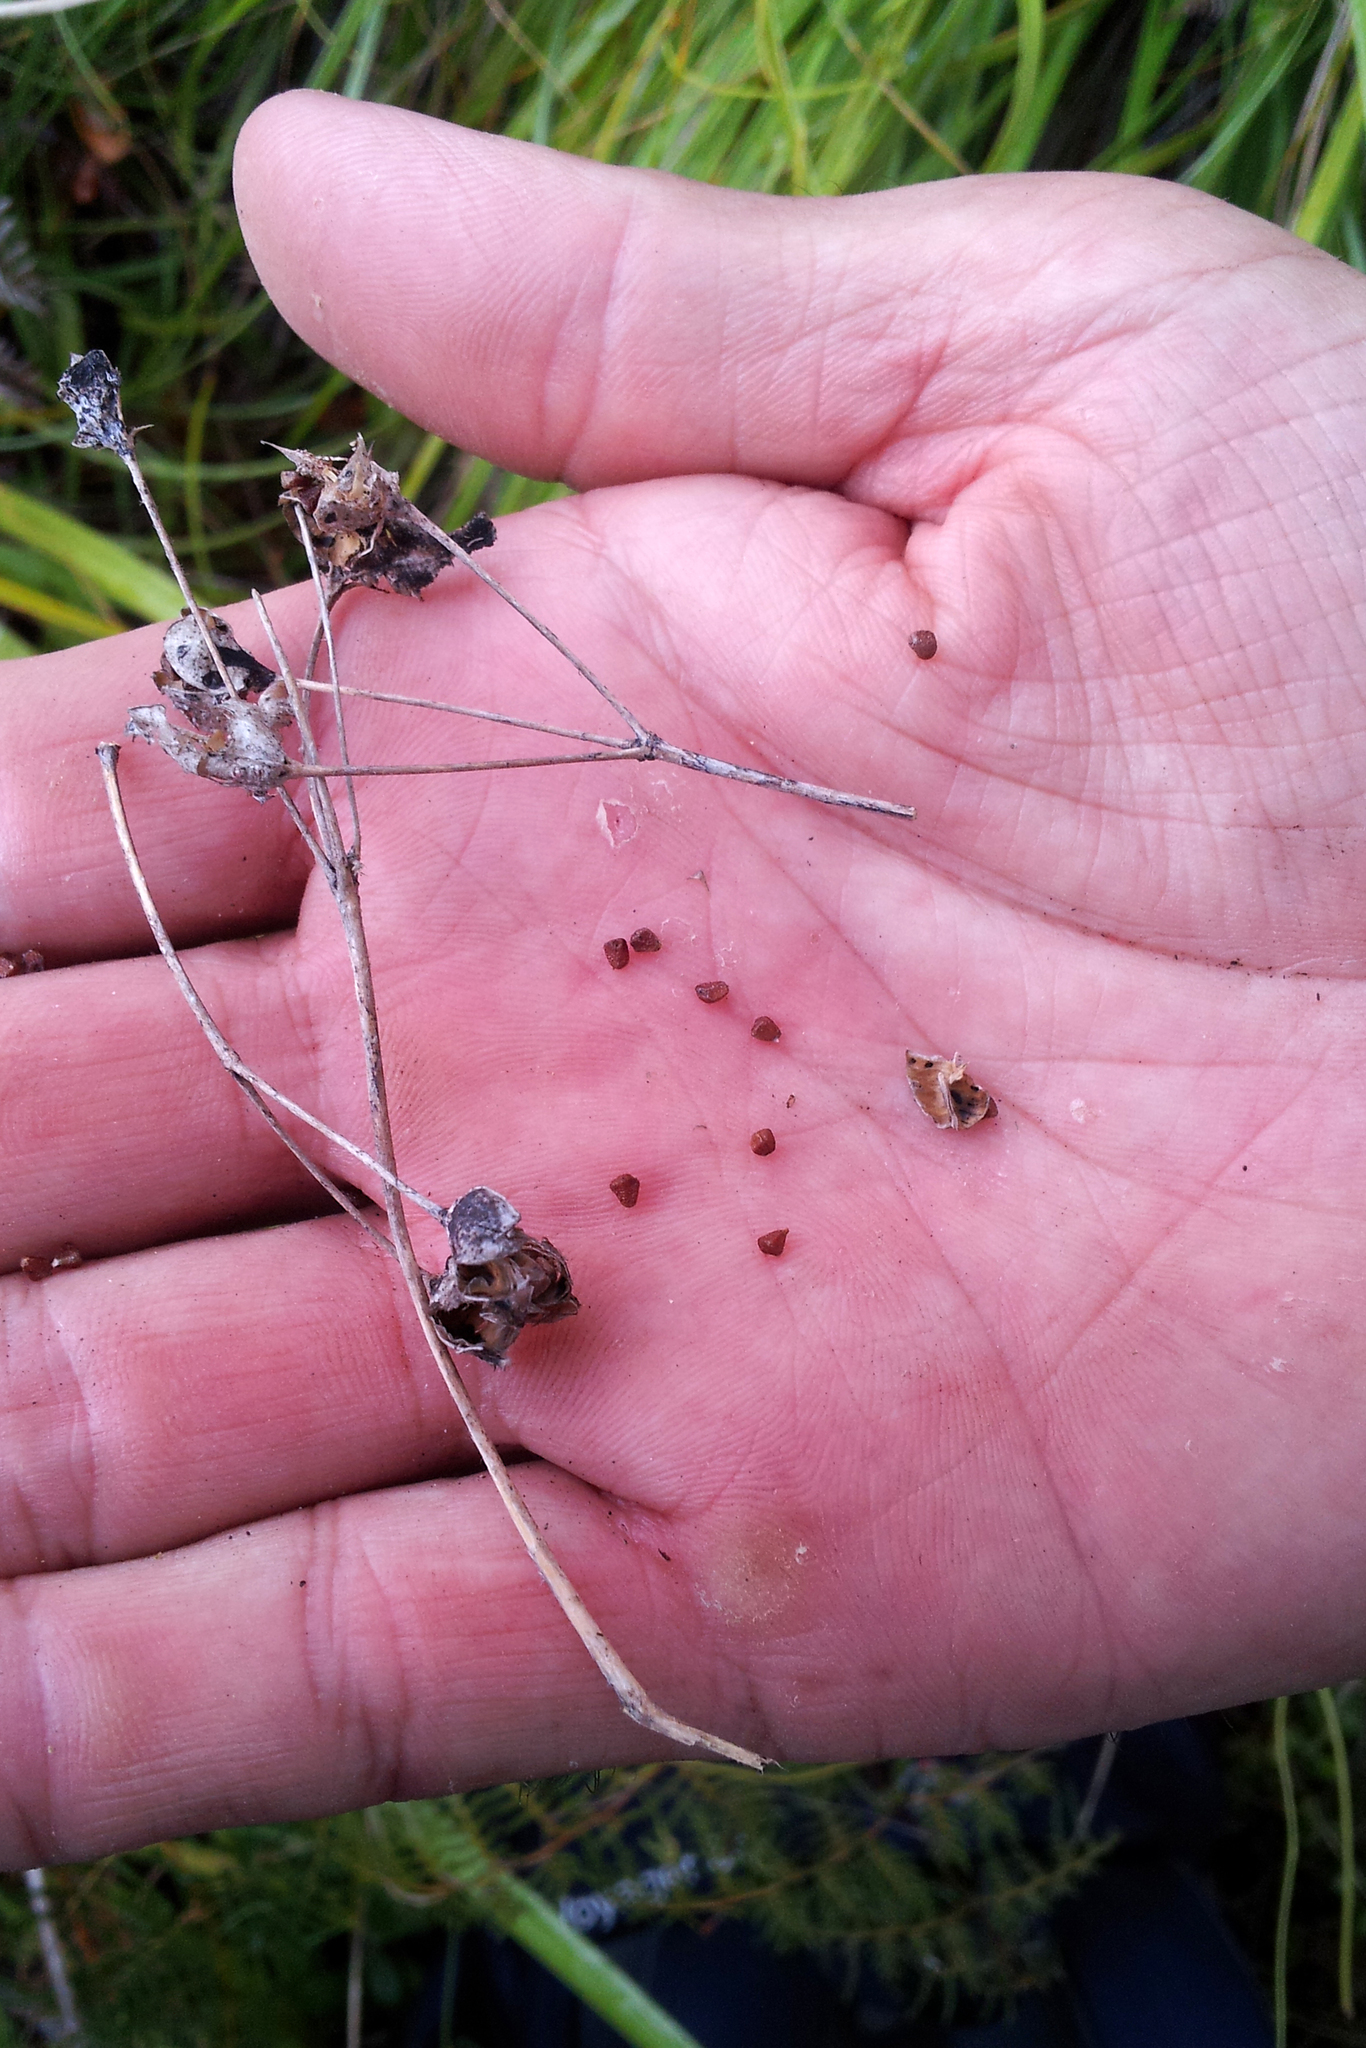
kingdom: Plantae
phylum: Tracheophyta
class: Liliopsida
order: Asparagales
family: Iridaceae
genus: Libertia
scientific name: Libertia grandiflora
